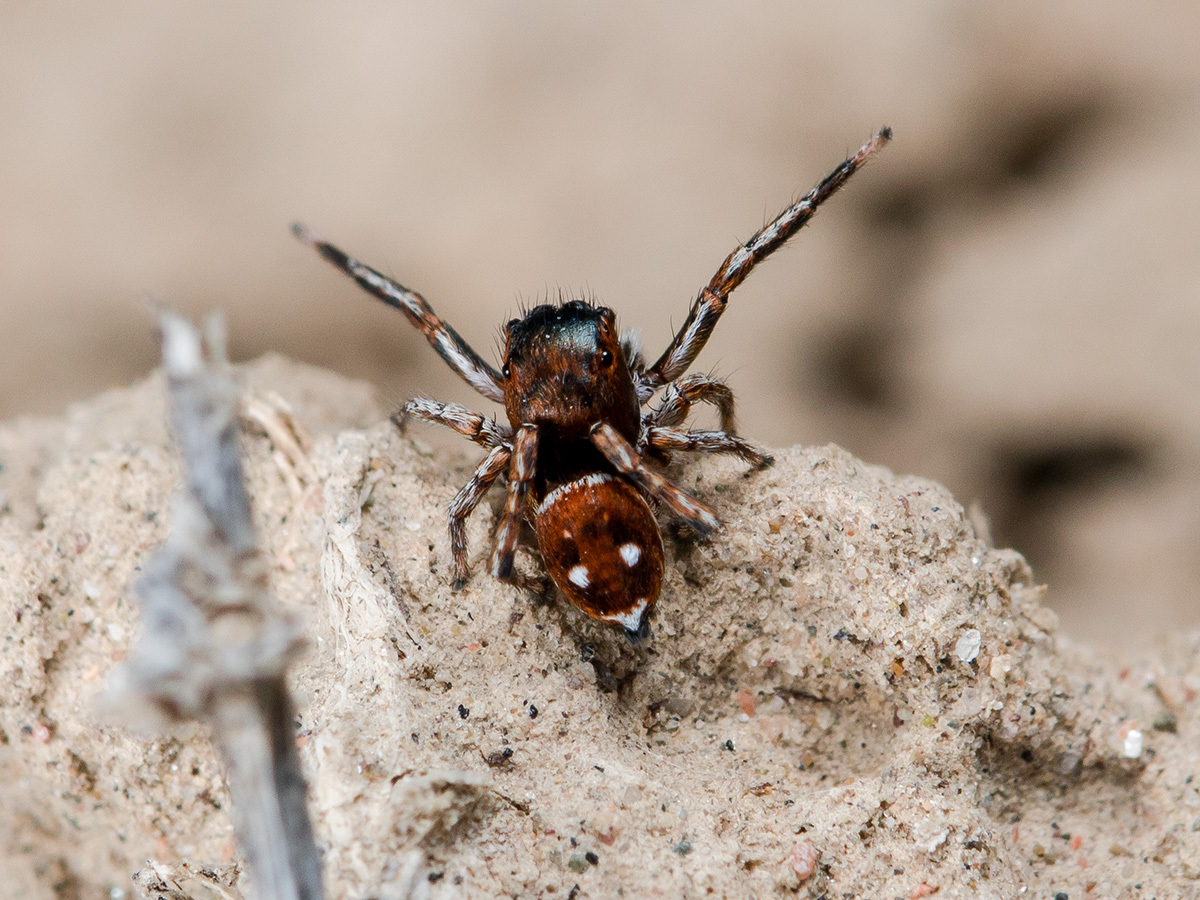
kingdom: Animalia
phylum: Arthropoda
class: Arachnida
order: Araneae
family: Salticidae
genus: Attulus
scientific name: Attulus mirandus
